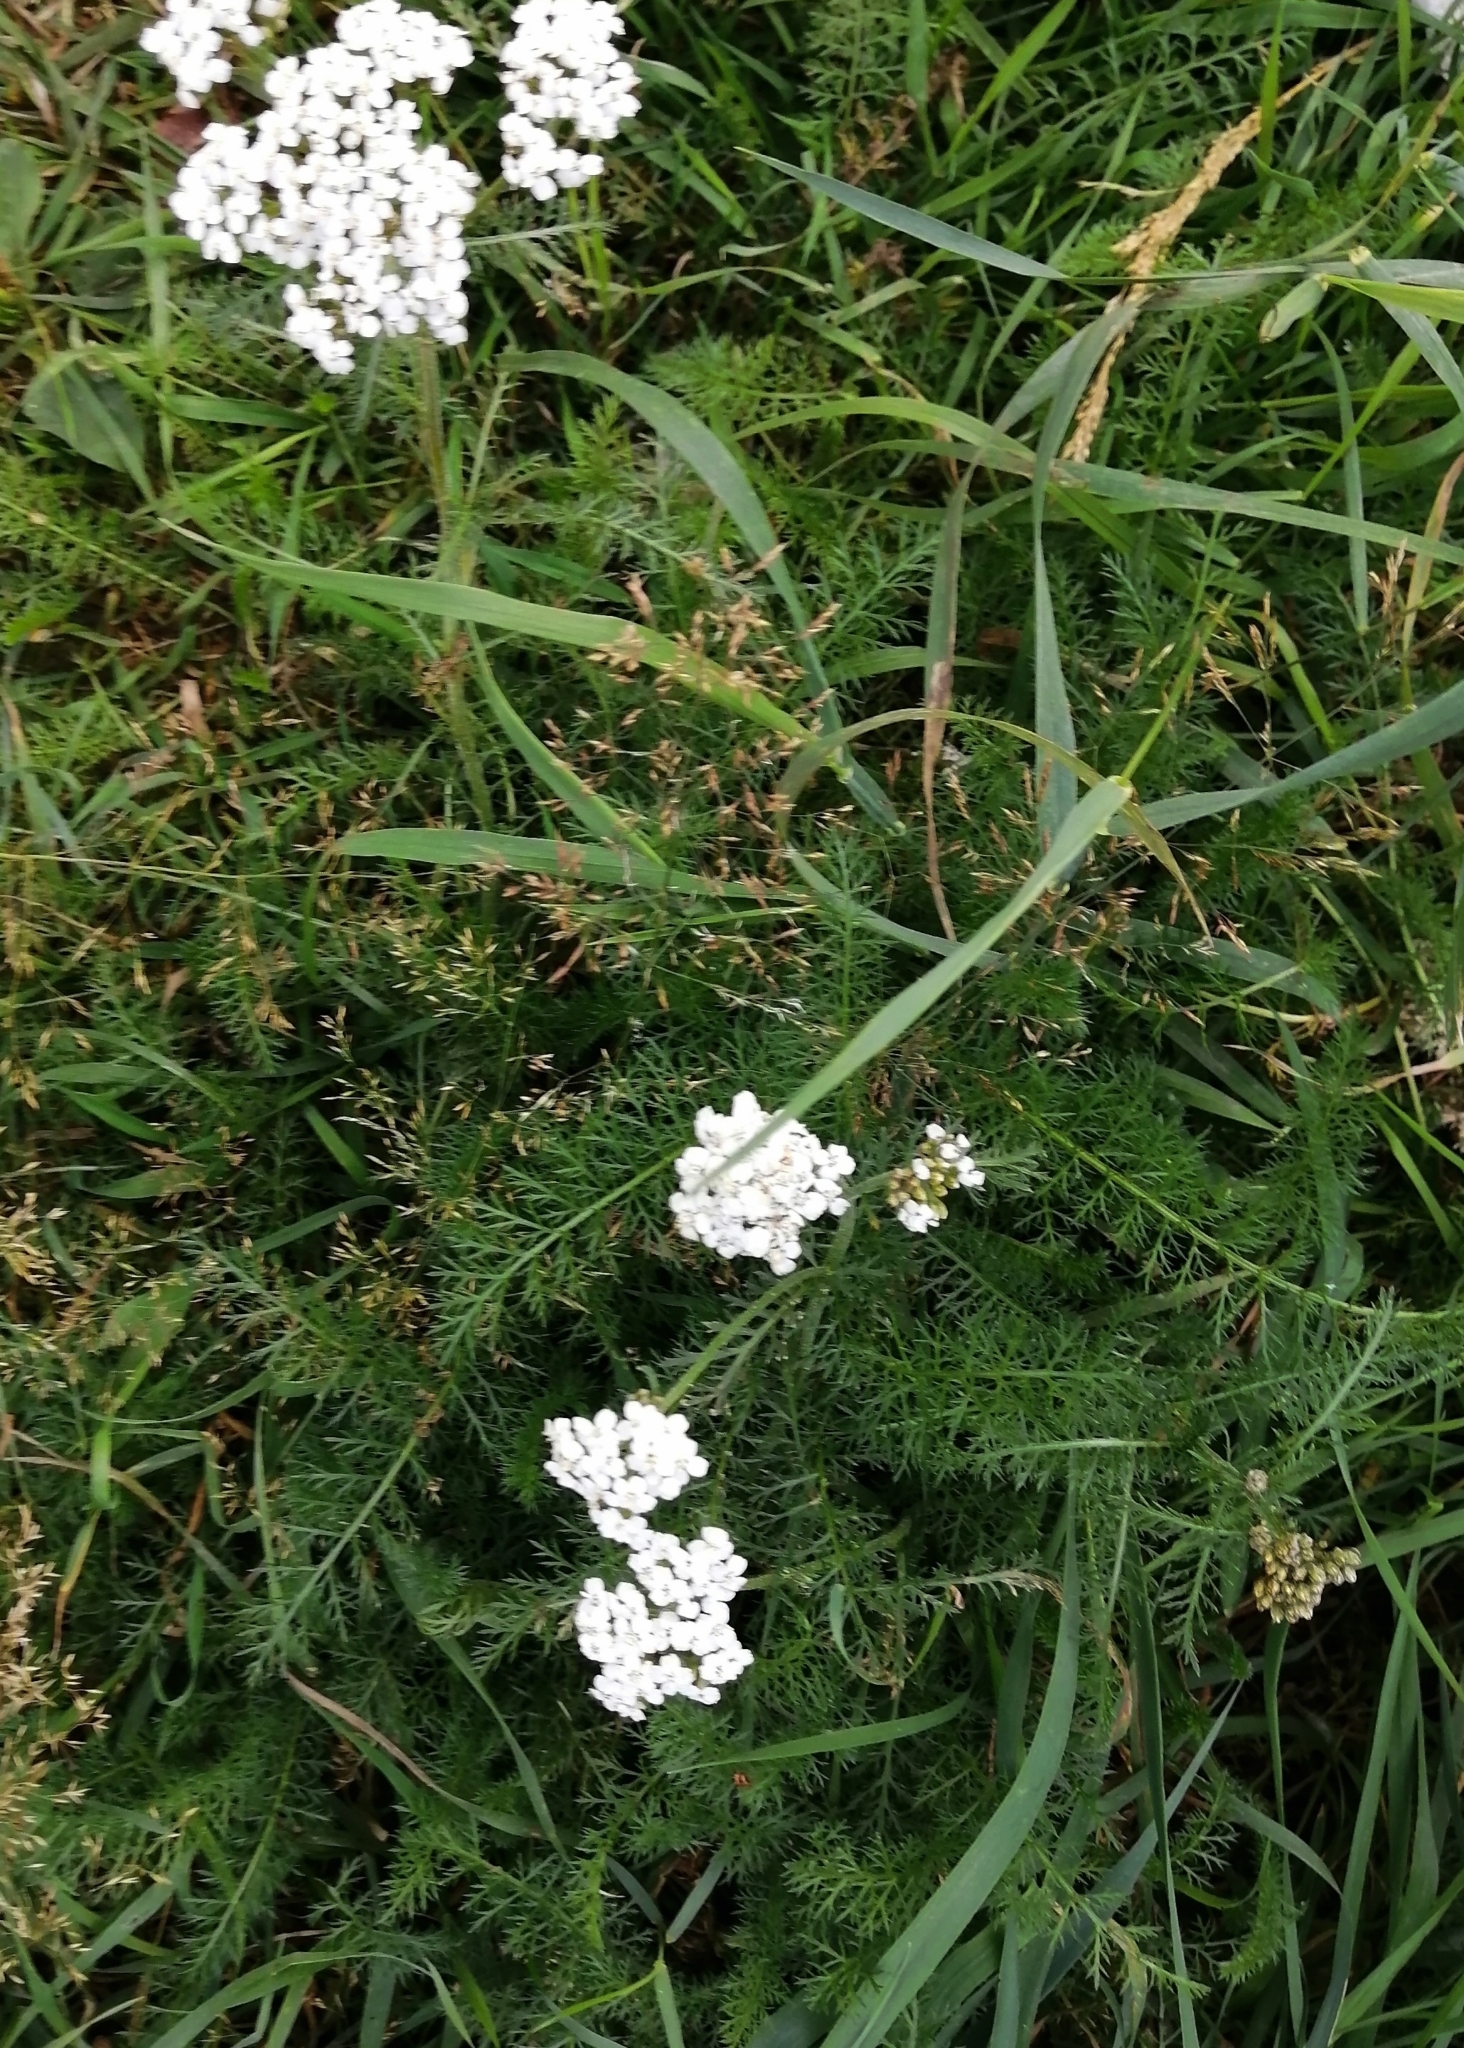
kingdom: Plantae
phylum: Tracheophyta
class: Magnoliopsida
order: Asterales
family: Asteraceae
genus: Achillea
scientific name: Achillea millefolium
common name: Yarrow
